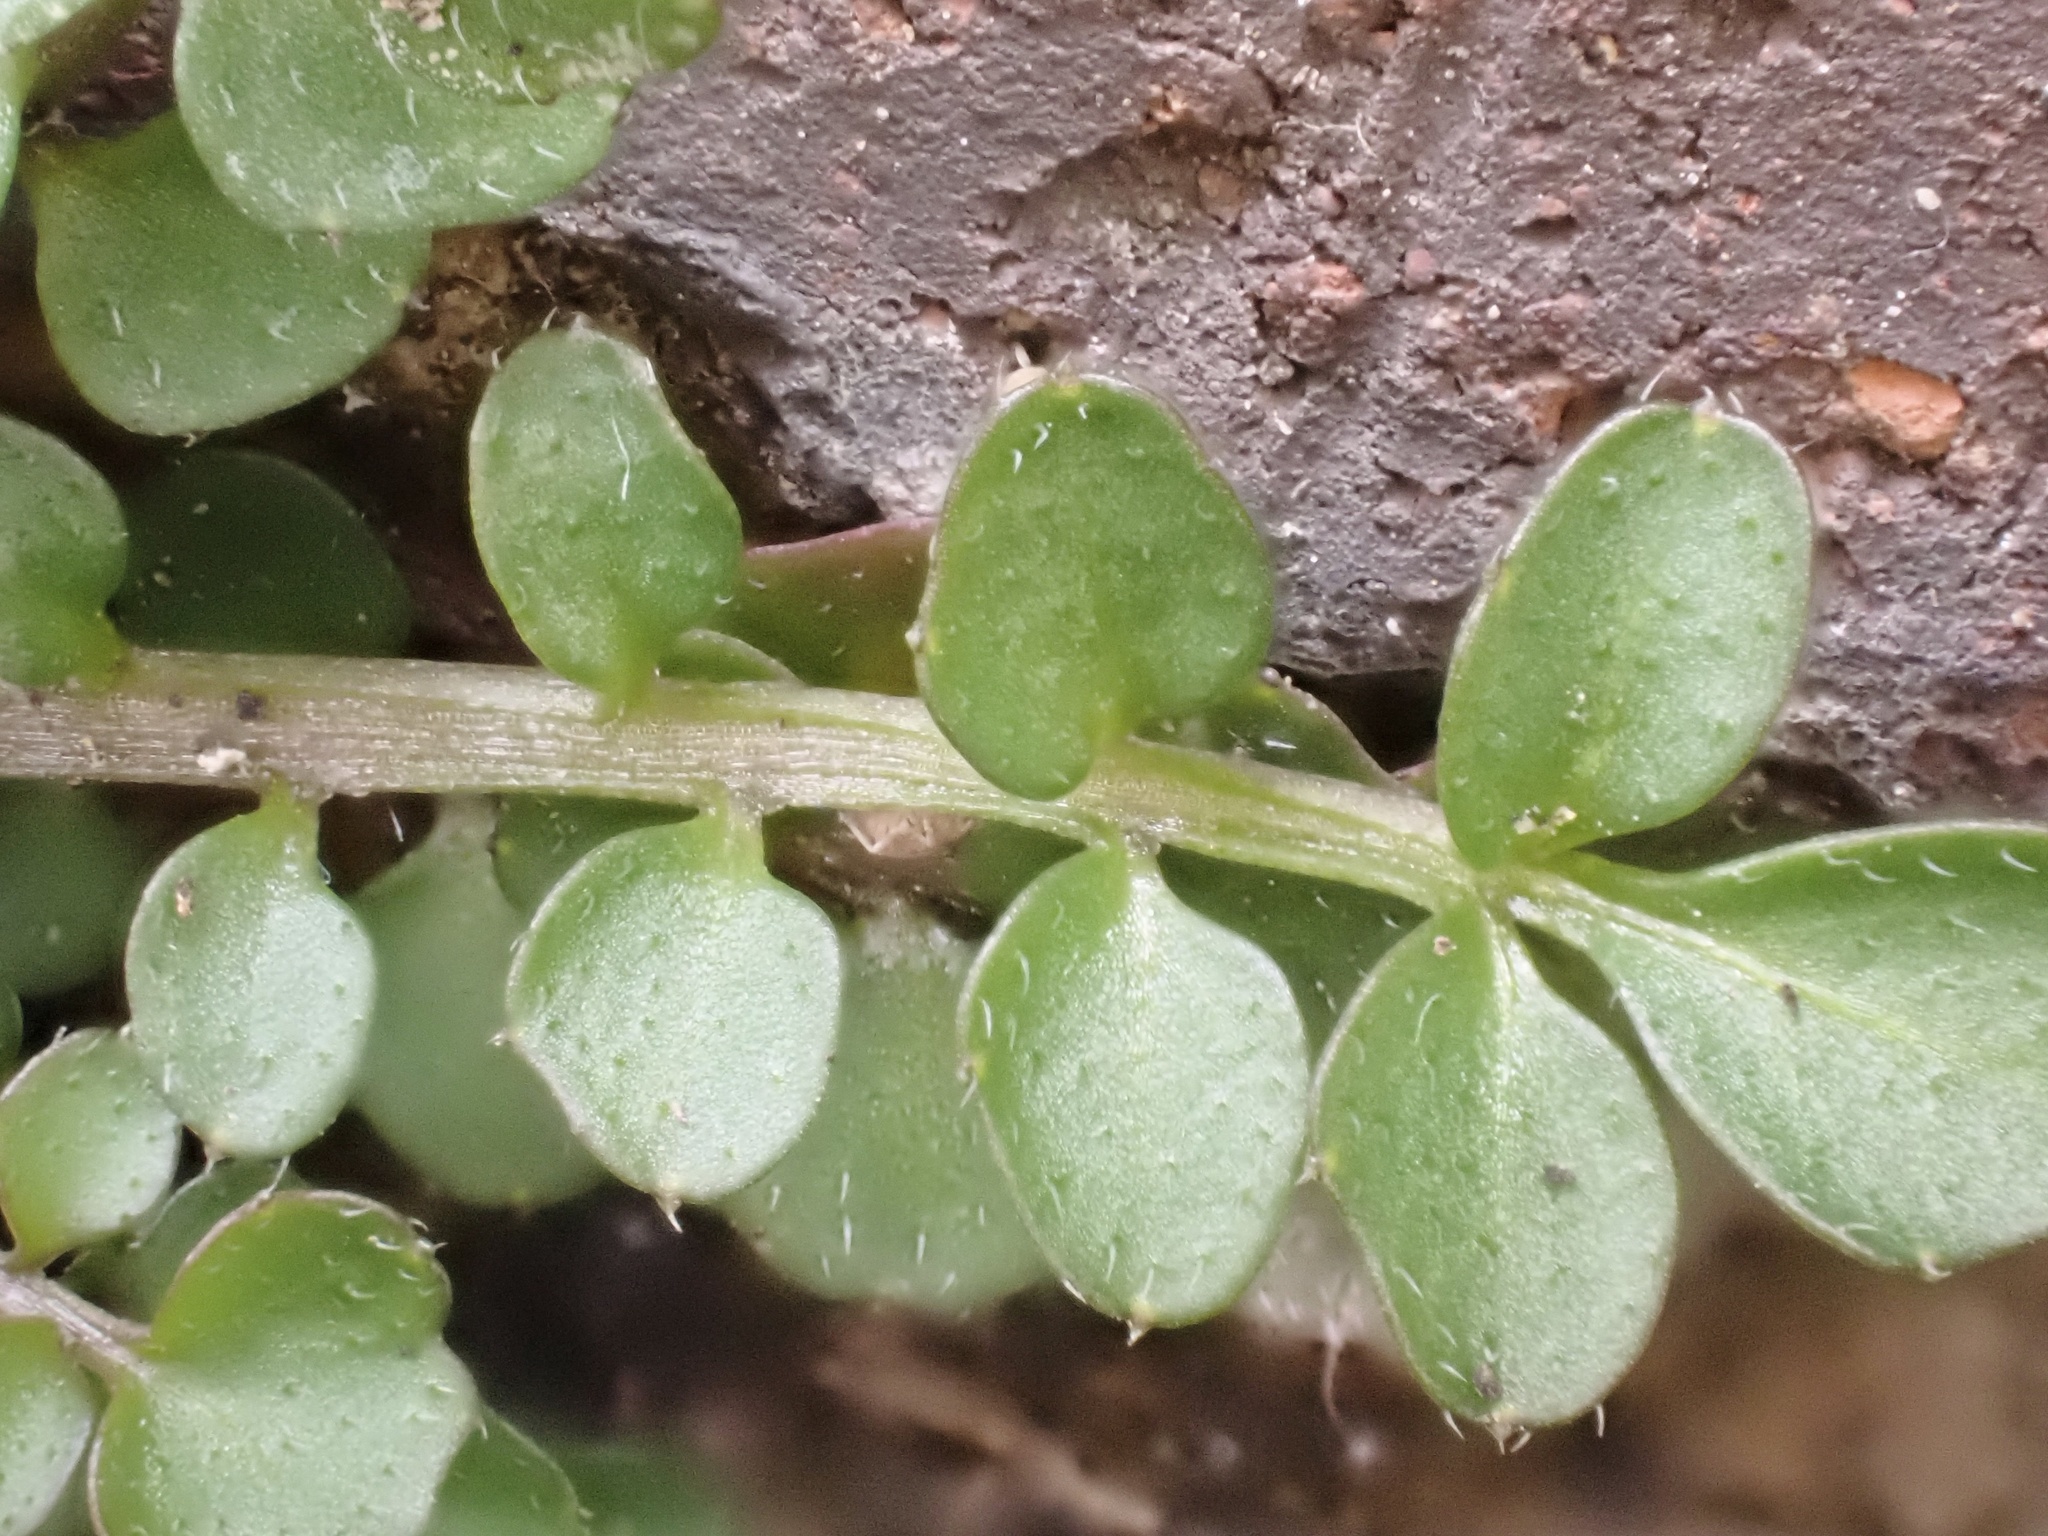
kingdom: Plantae
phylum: Tracheophyta
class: Magnoliopsida
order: Brassicales
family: Brassicaceae
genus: Cardamine
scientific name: Cardamine hirsuta
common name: Hairy bittercress
